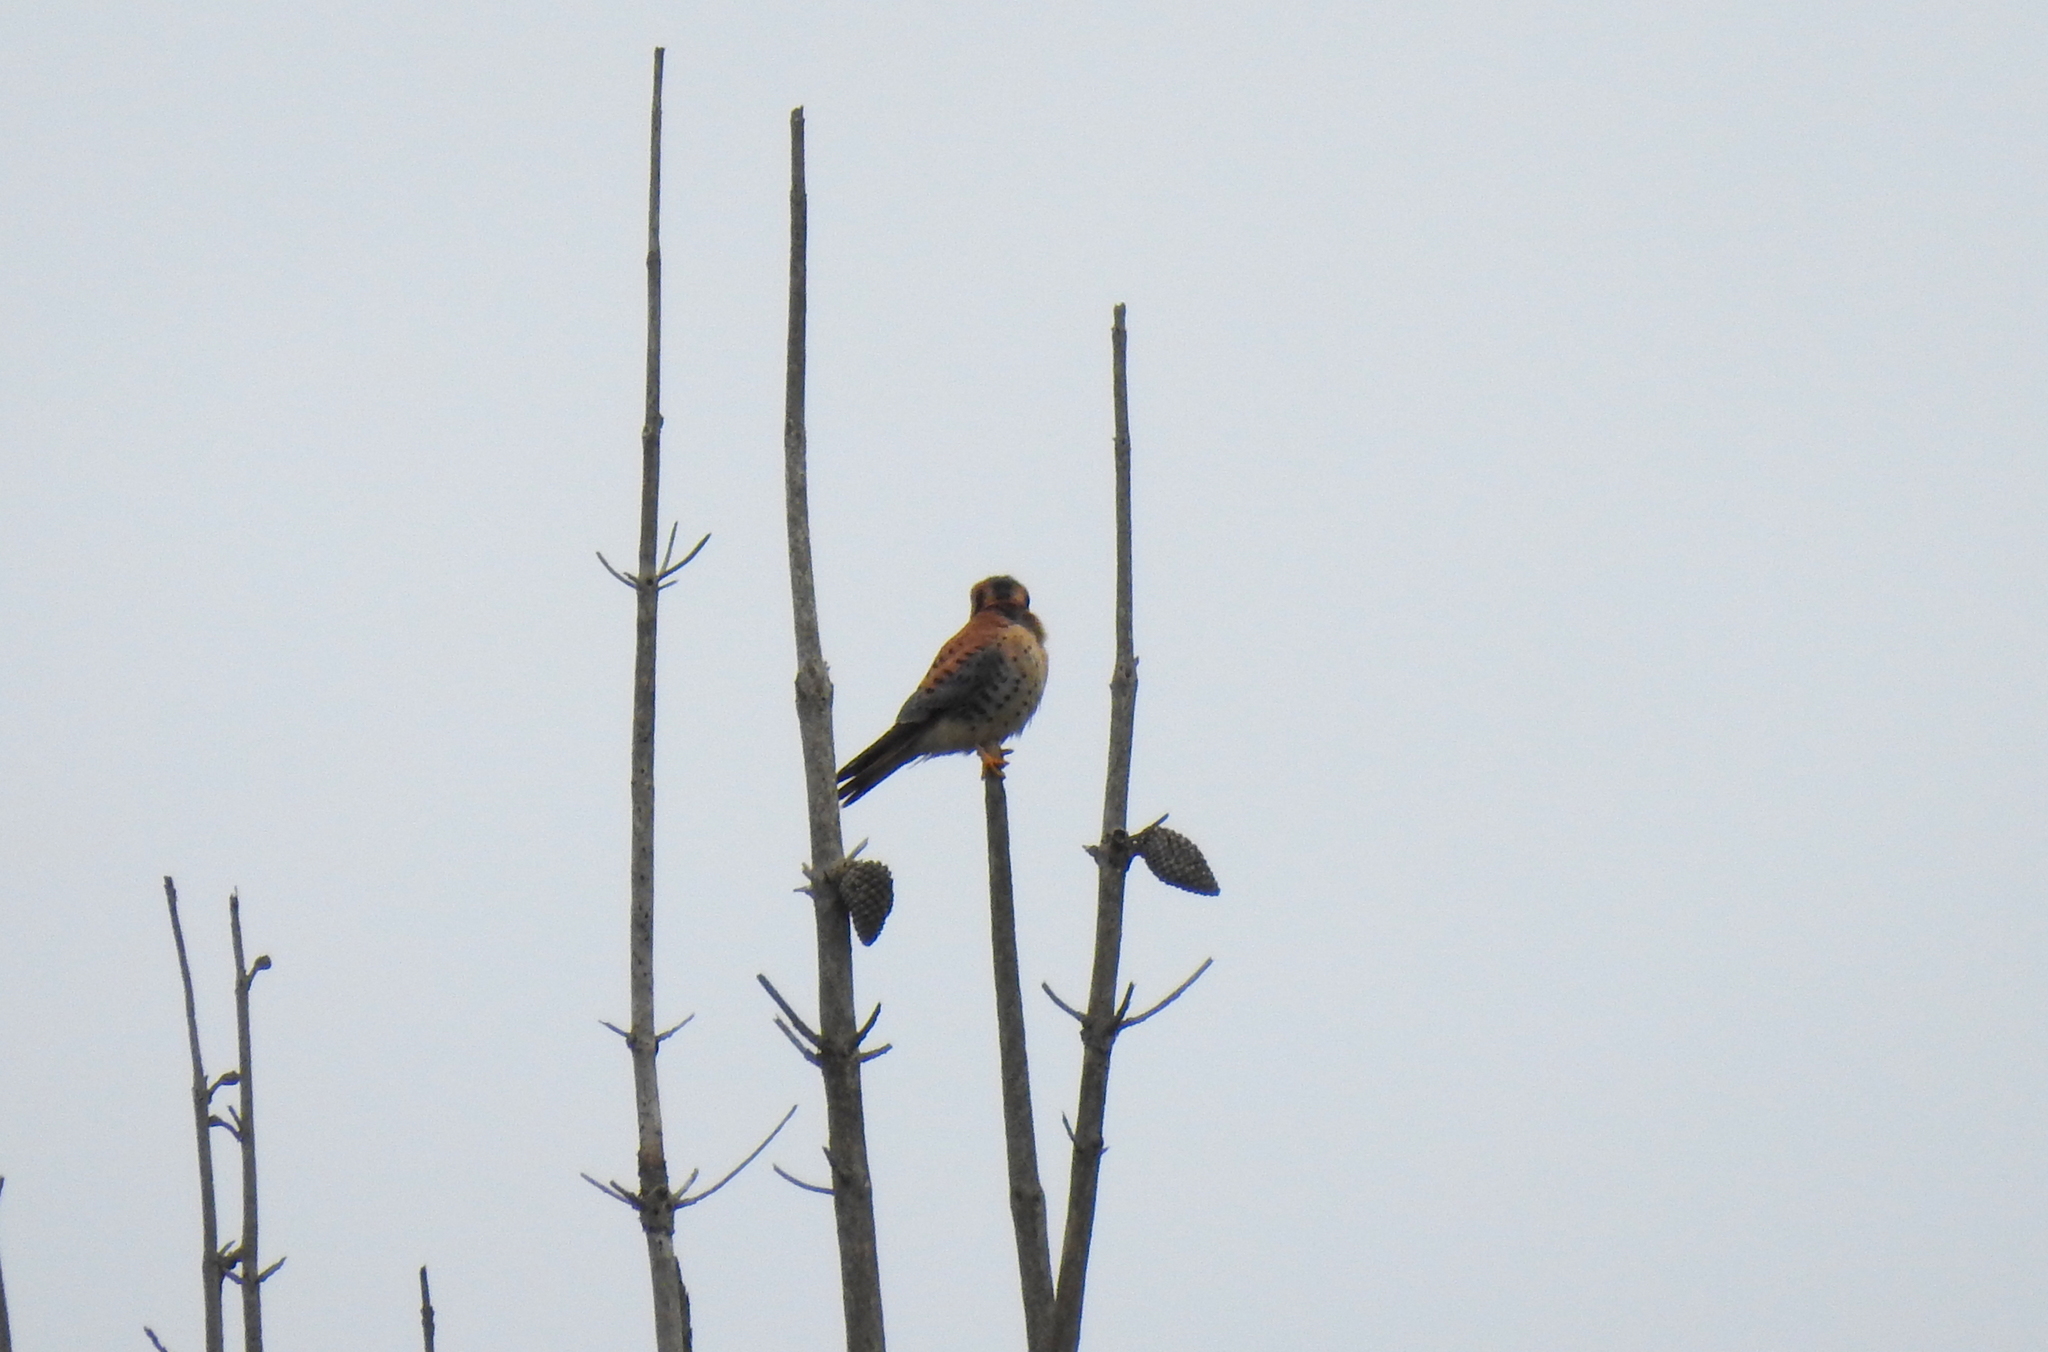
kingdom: Animalia
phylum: Chordata
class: Aves
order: Falconiformes
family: Falconidae
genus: Falco
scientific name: Falco sparverius
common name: American kestrel
